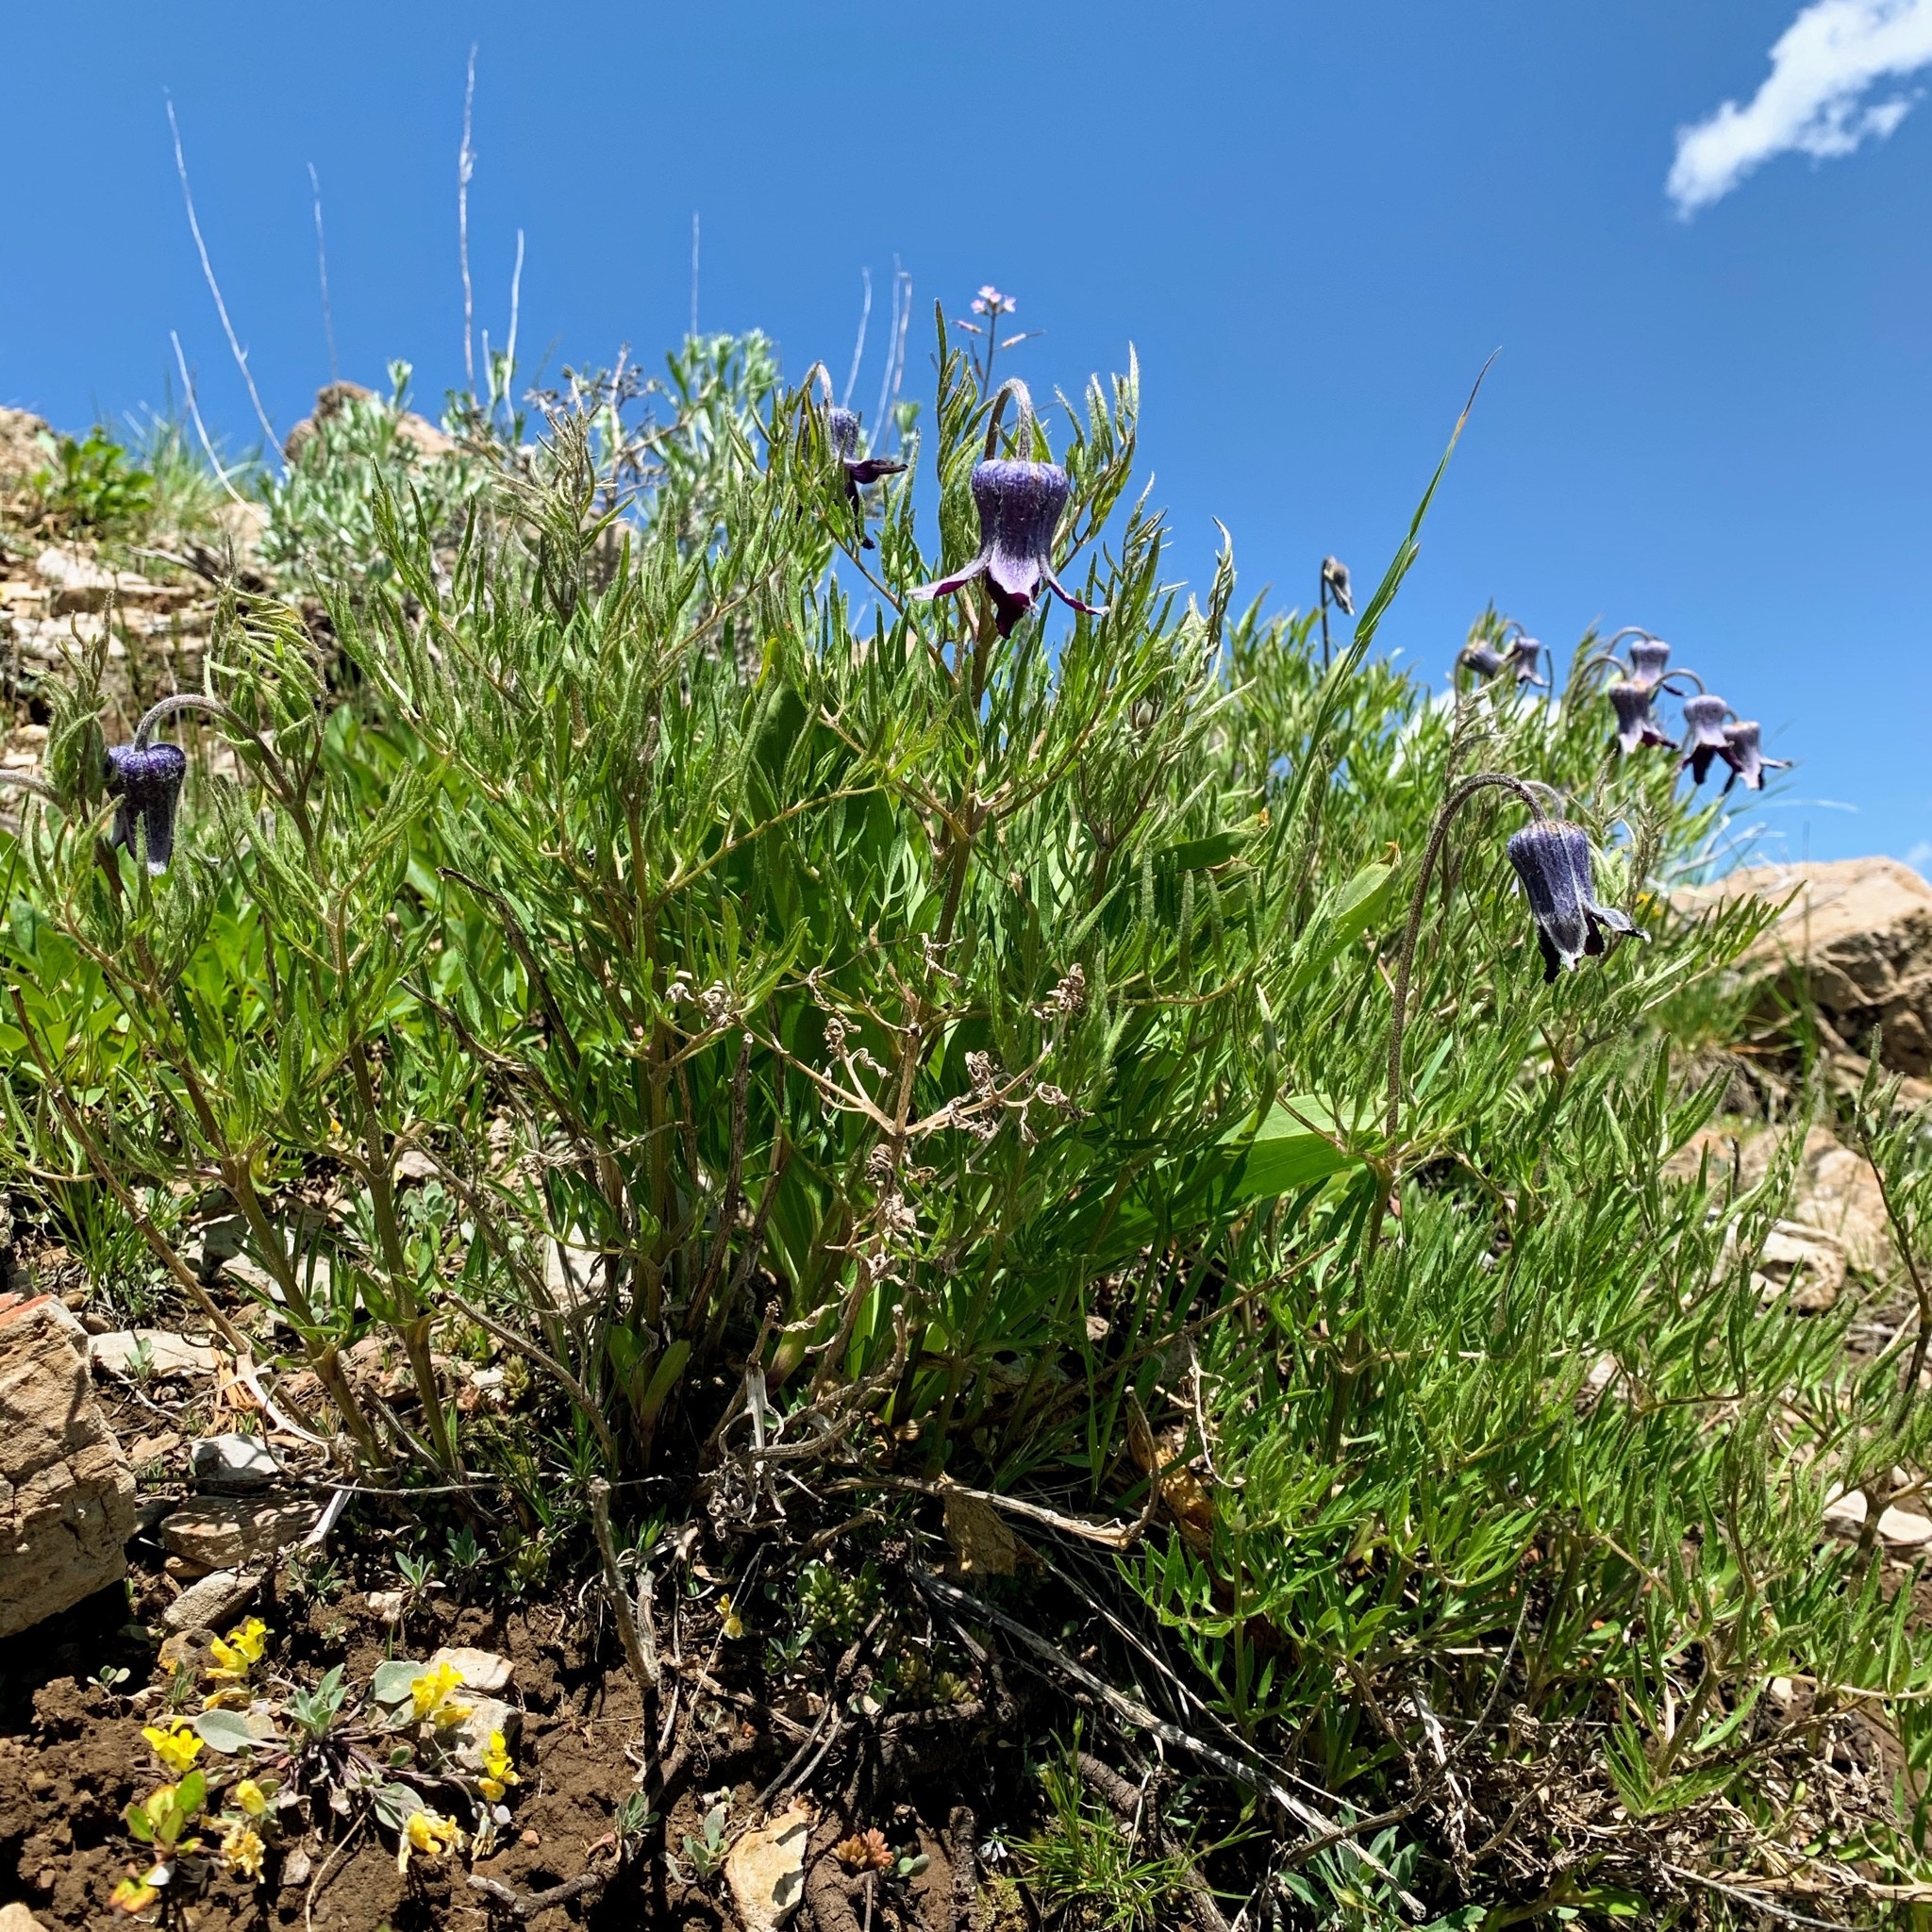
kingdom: Plantae
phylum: Tracheophyta
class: Magnoliopsida
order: Ranunculales
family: Ranunculaceae
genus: Clematis
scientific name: Clematis hirsutissima
